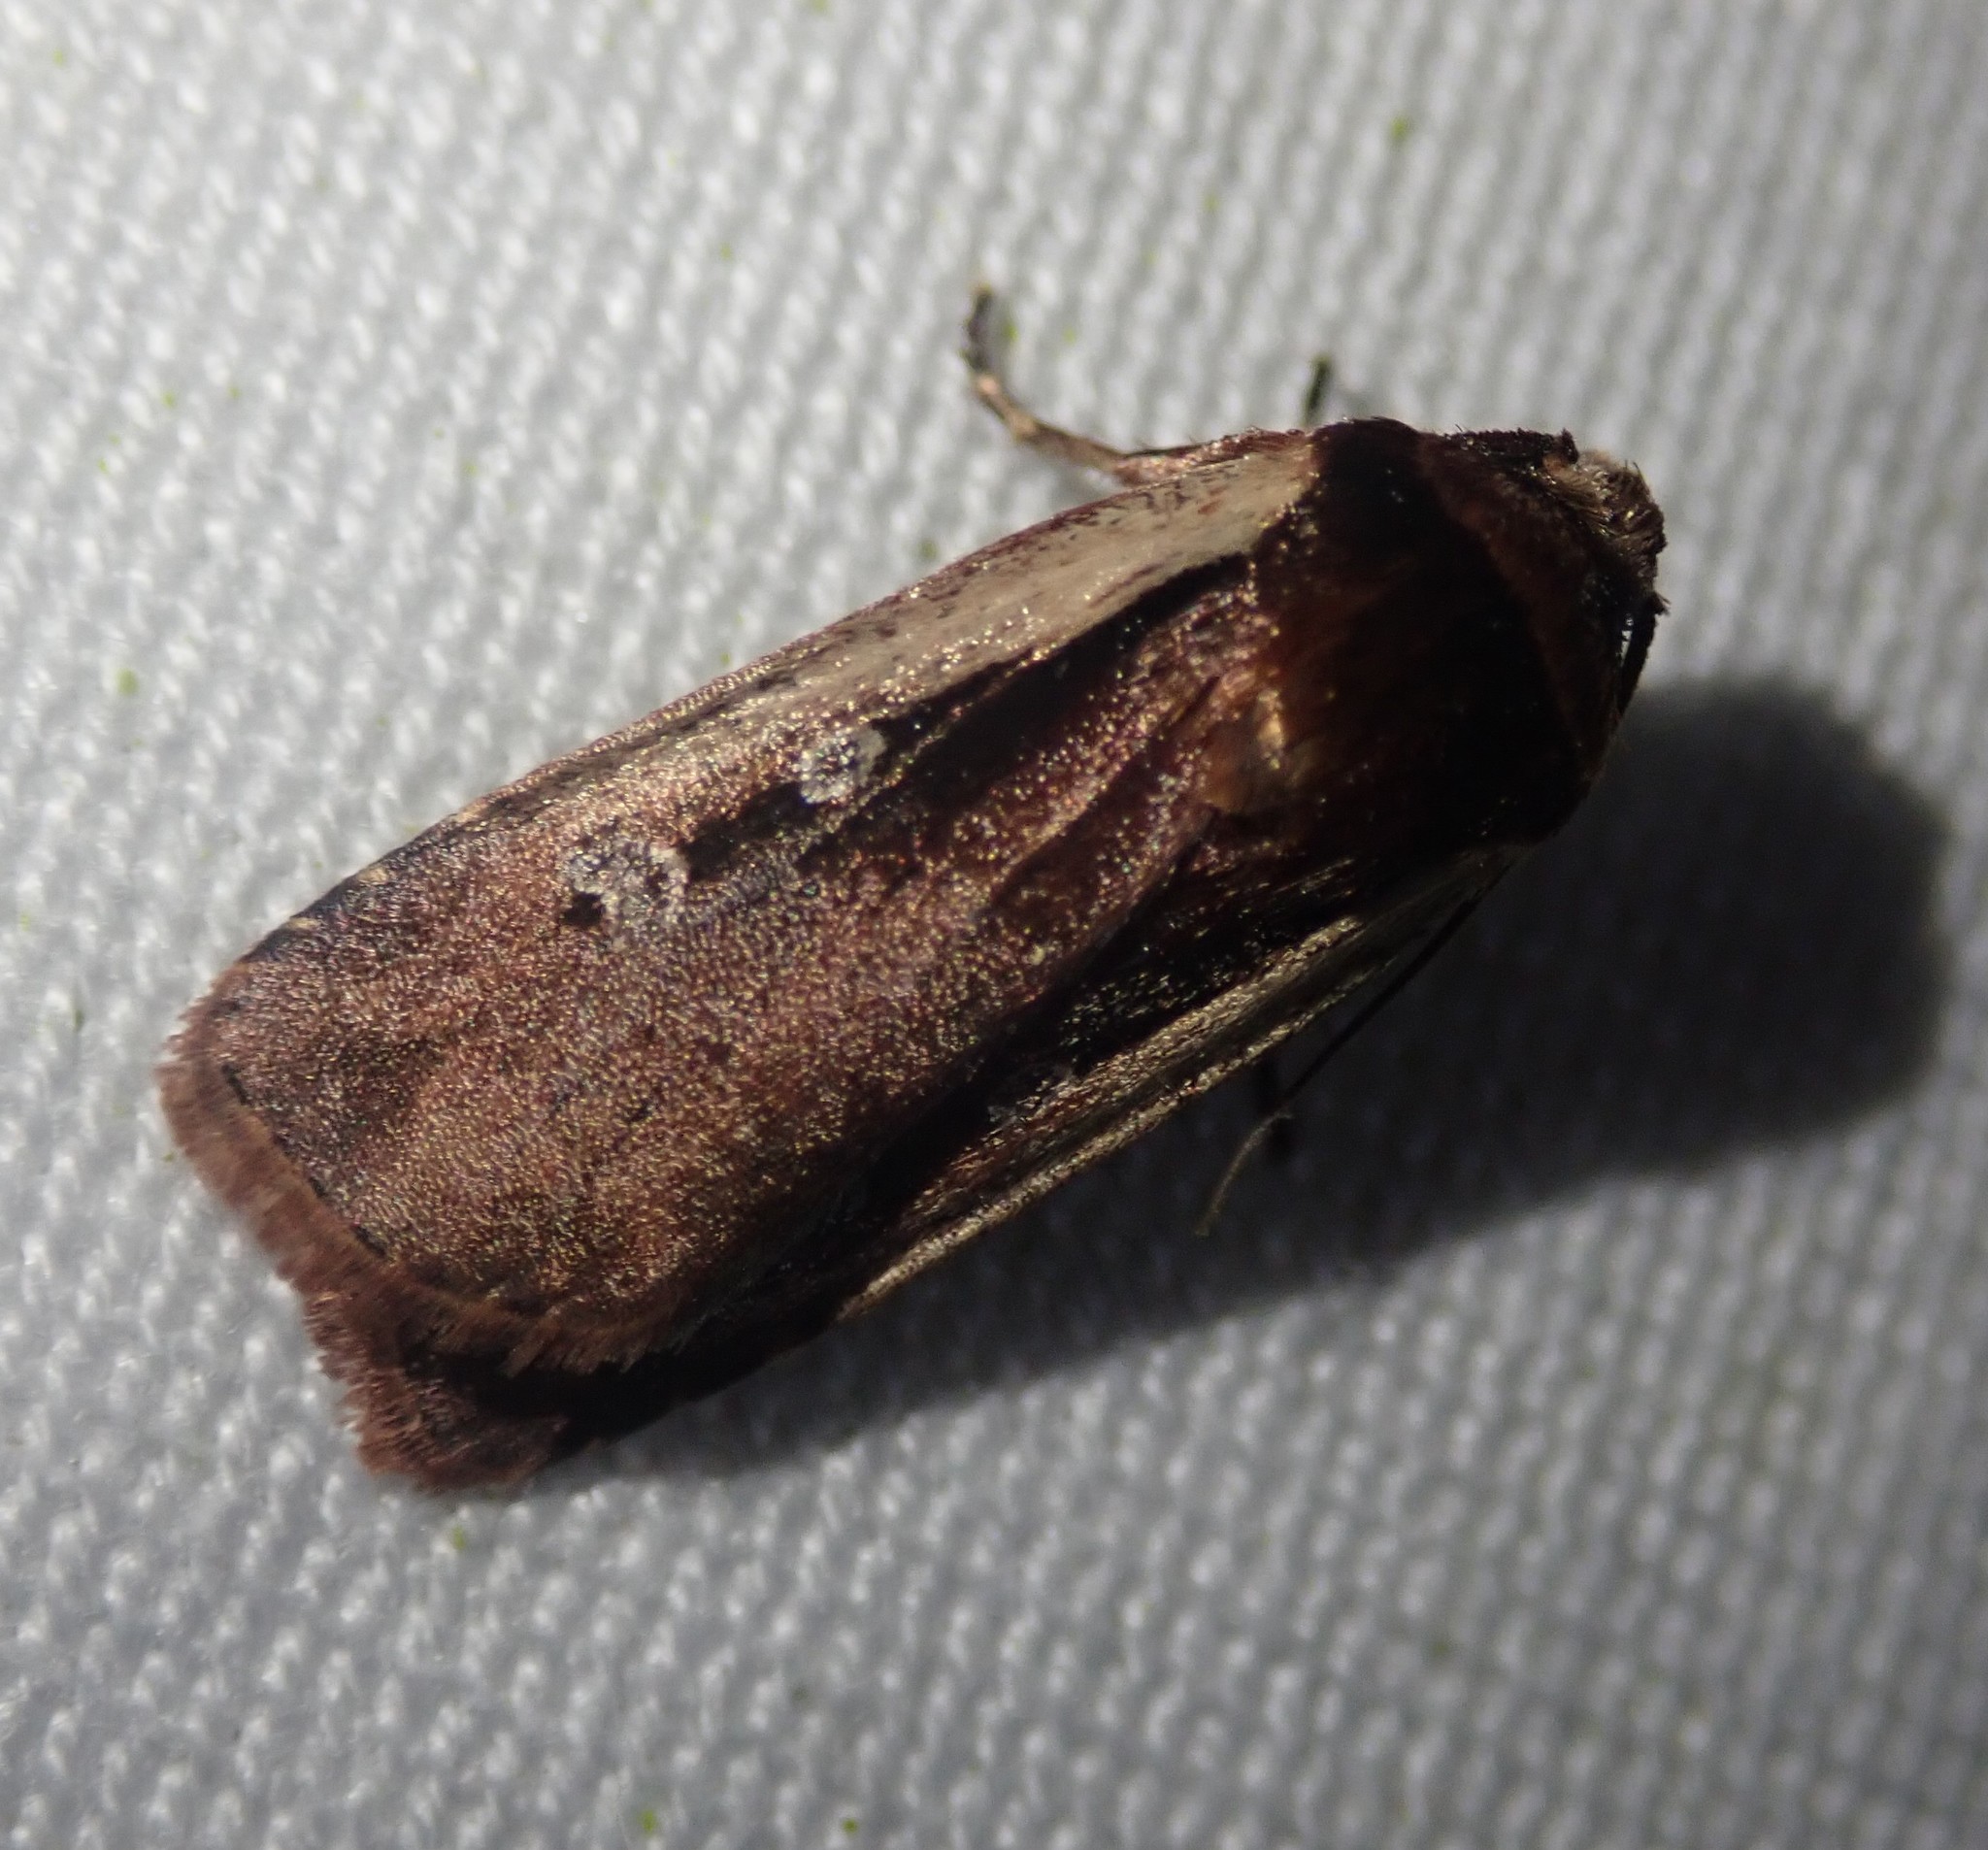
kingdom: Animalia
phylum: Arthropoda
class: Insecta
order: Lepidoptera
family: Noctuidae
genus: Ochropleura
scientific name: Ochropleura plecta
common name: Flame shoulder
